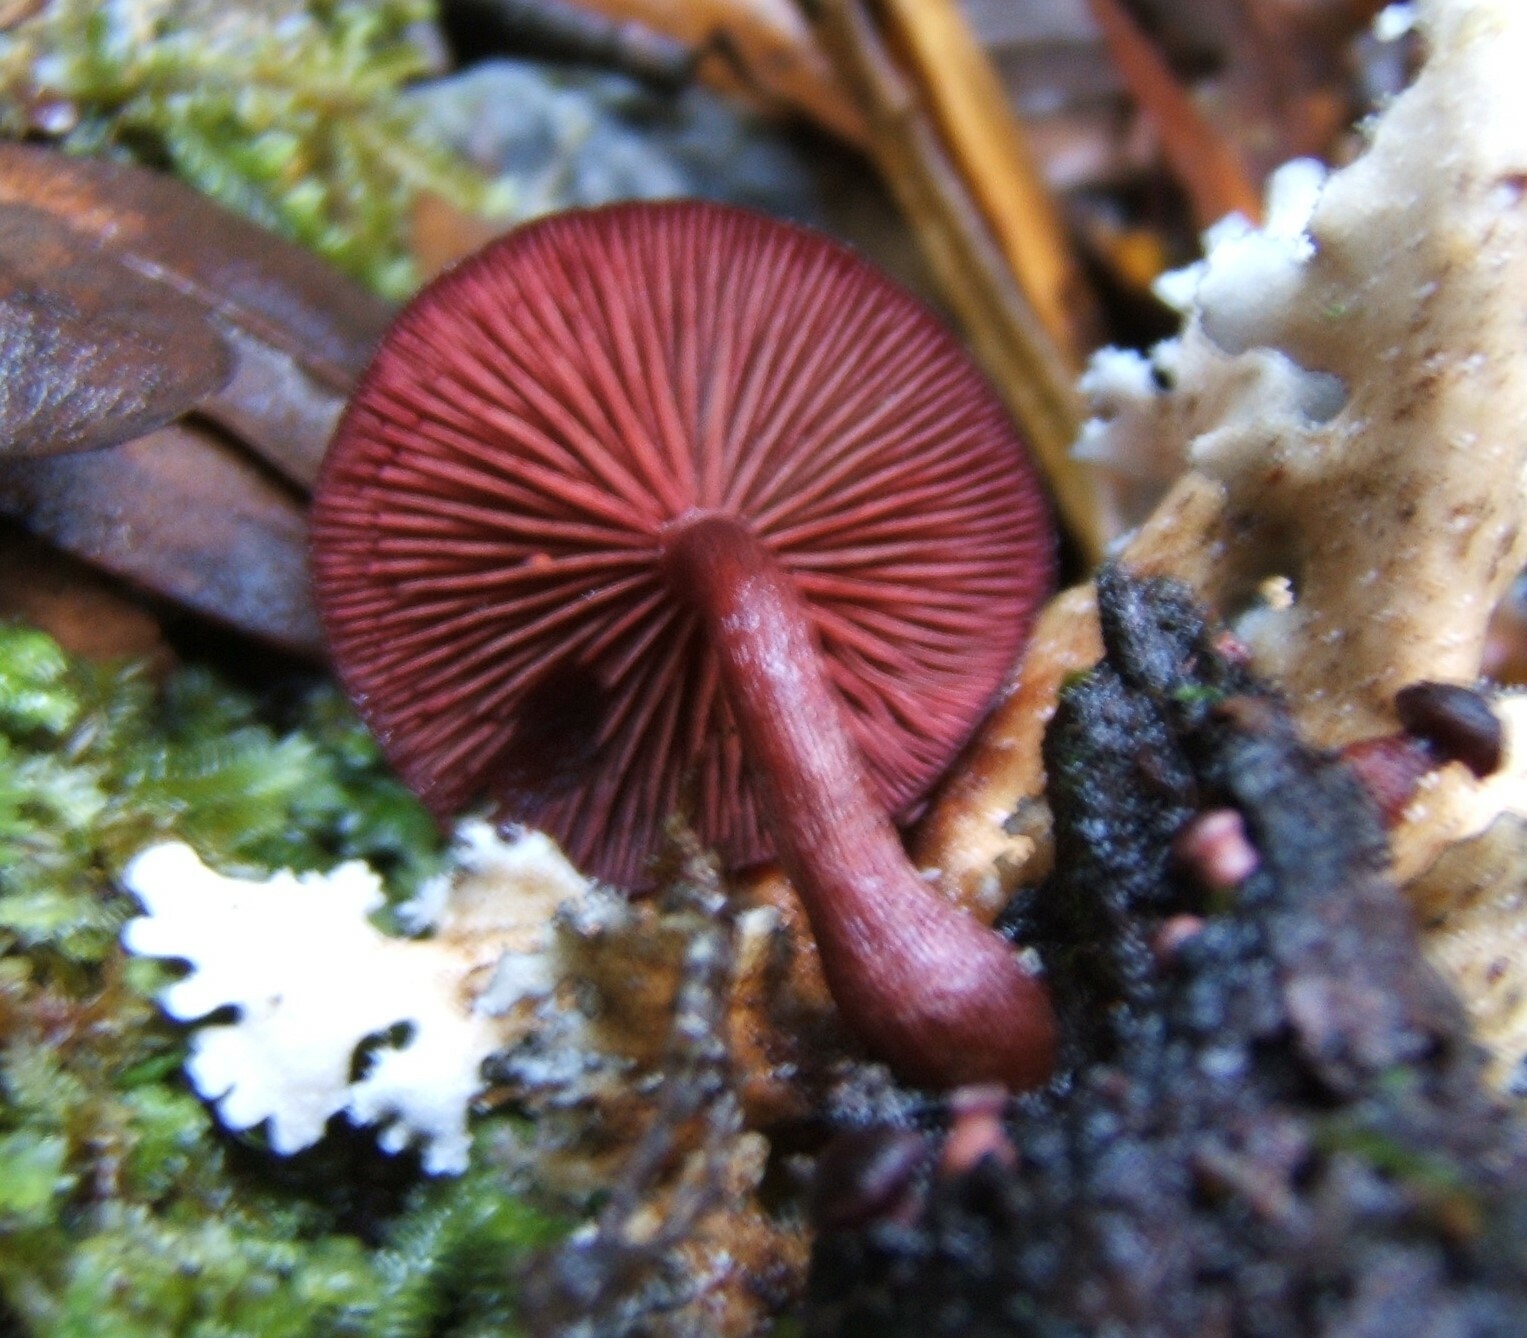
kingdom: Fungi
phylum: Basidiomycota
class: Agaricomycetes
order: Agaricales
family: Tubariaceae
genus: Tubaria
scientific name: Tubaria rufofulva
